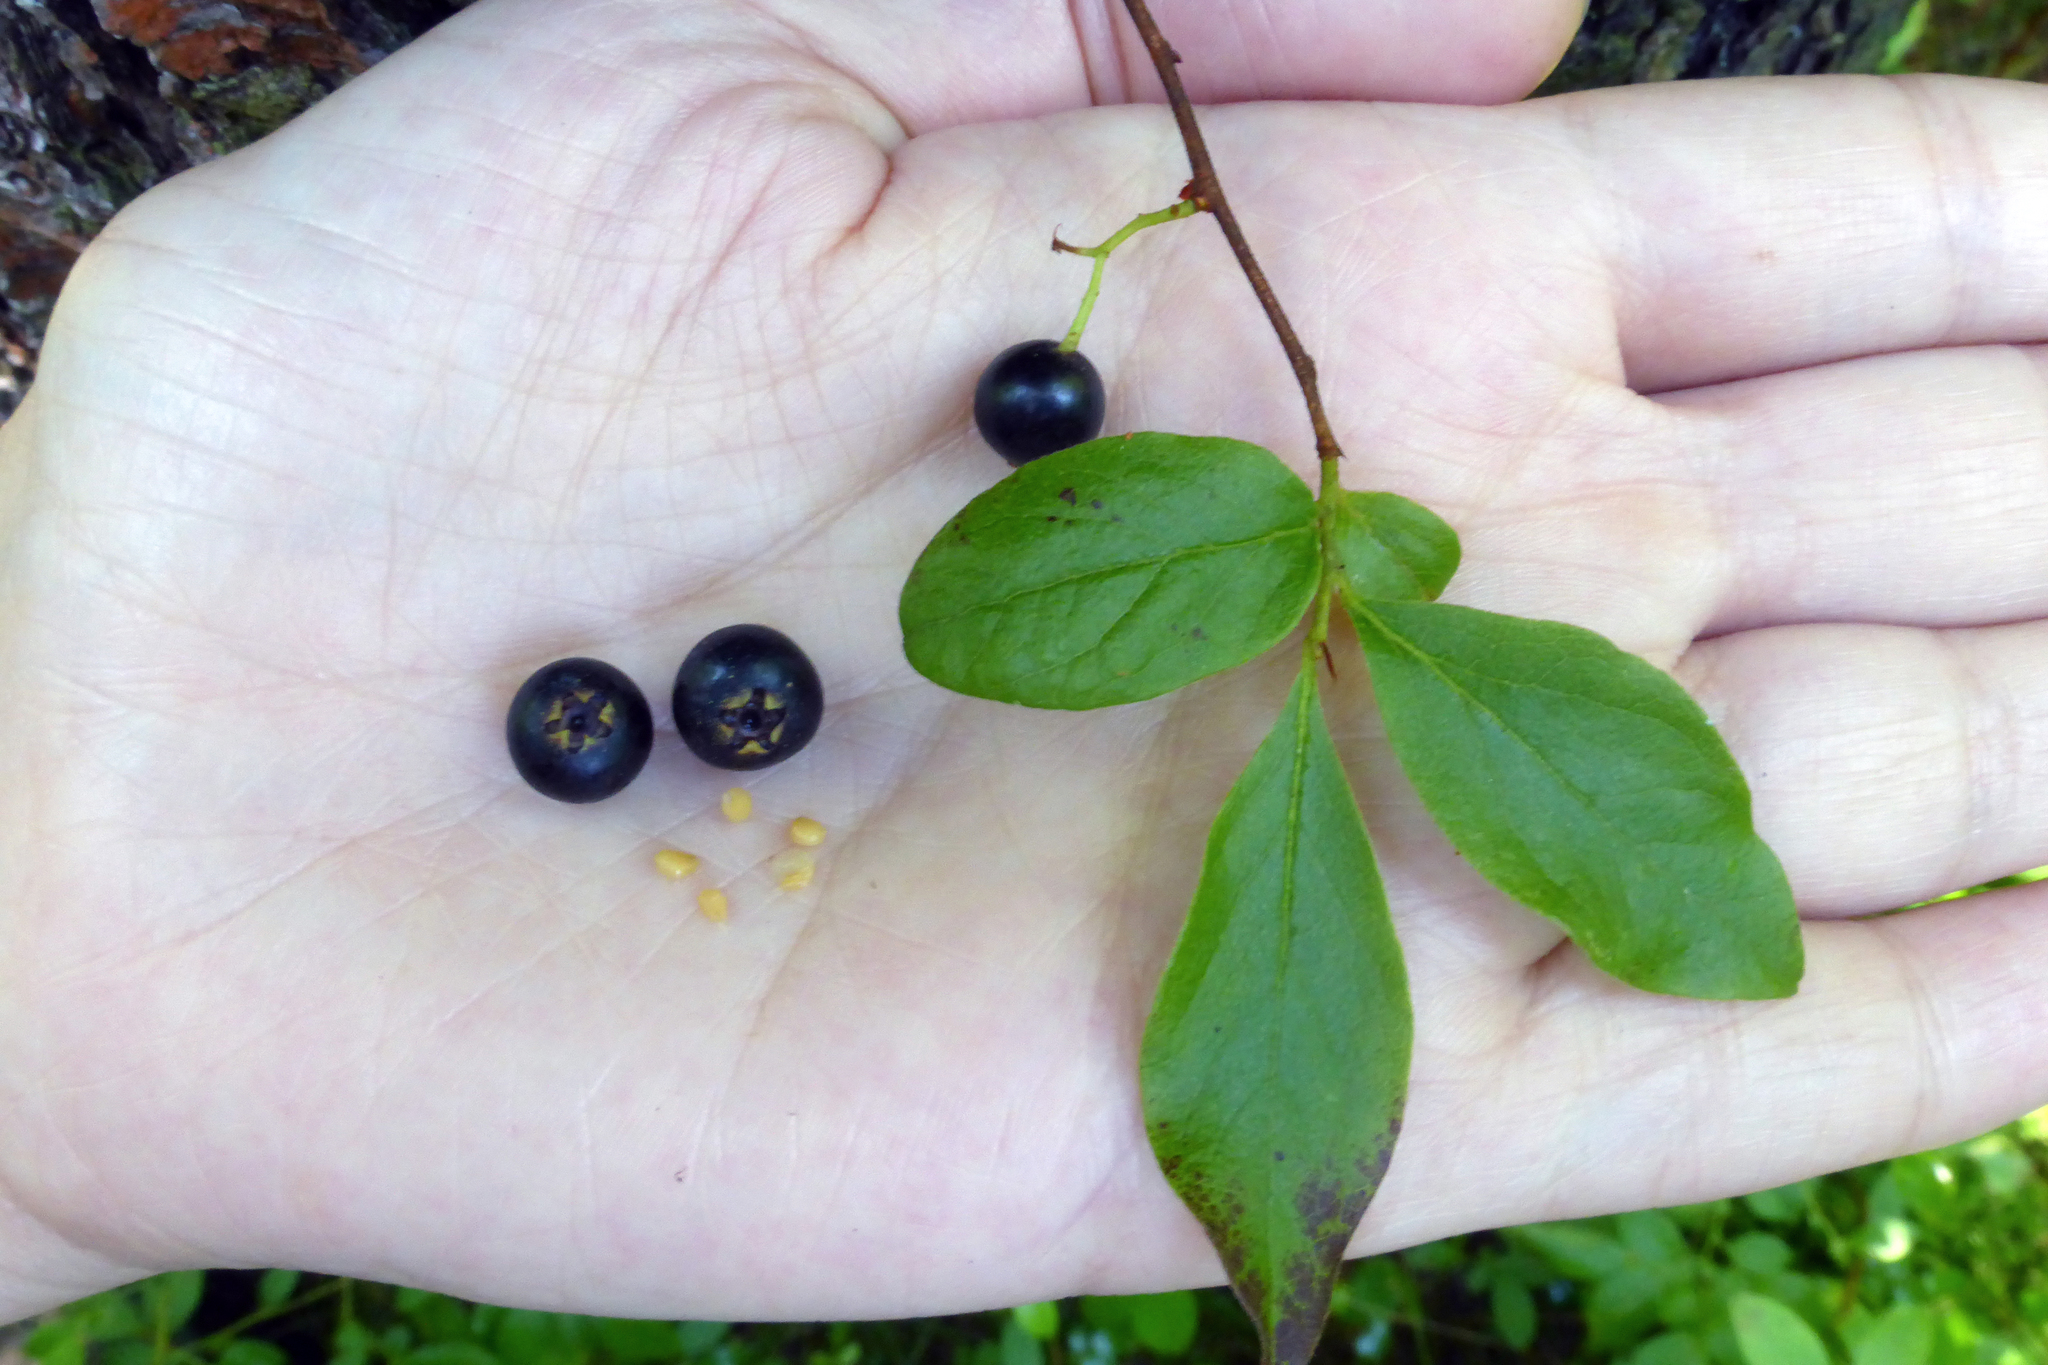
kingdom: Plantae
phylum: Tracheophyta
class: Magnoliopsida
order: Ericales
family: Ericaceae
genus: Gaylussacia
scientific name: Gaylussacia baccata
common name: Black huckleberry
